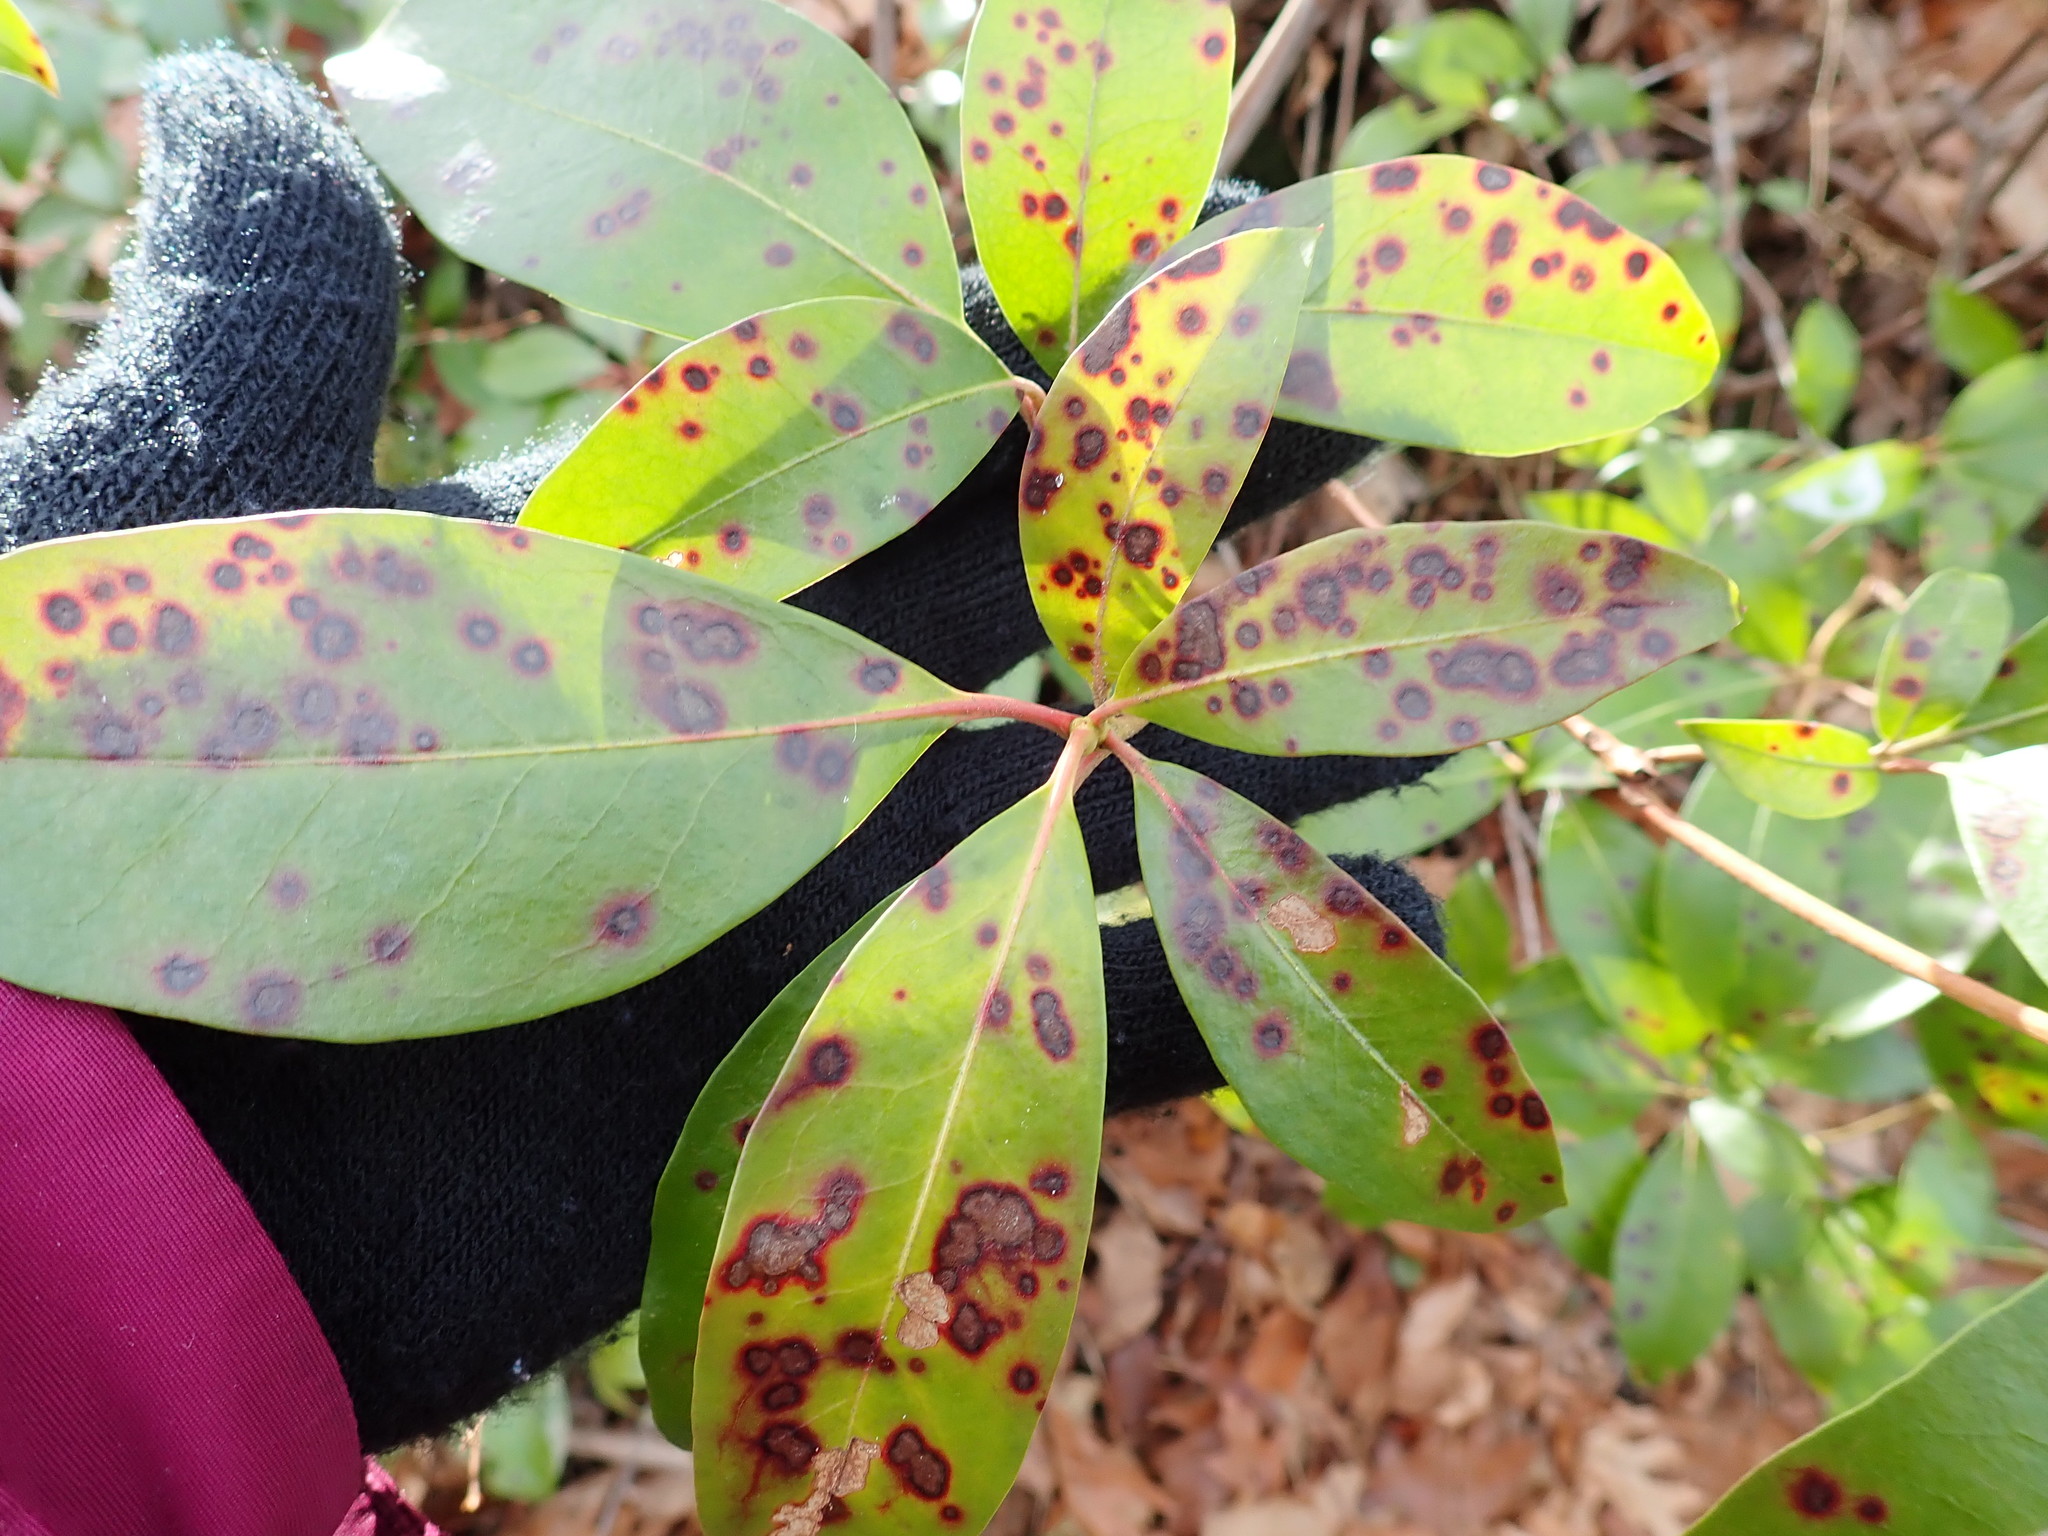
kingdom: Plantae
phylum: Tracheophyta
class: Magnoliopsida
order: Ericales
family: Ericaceae
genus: Kalmia
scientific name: Kalmia latifolia
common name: Mountain-laurel
